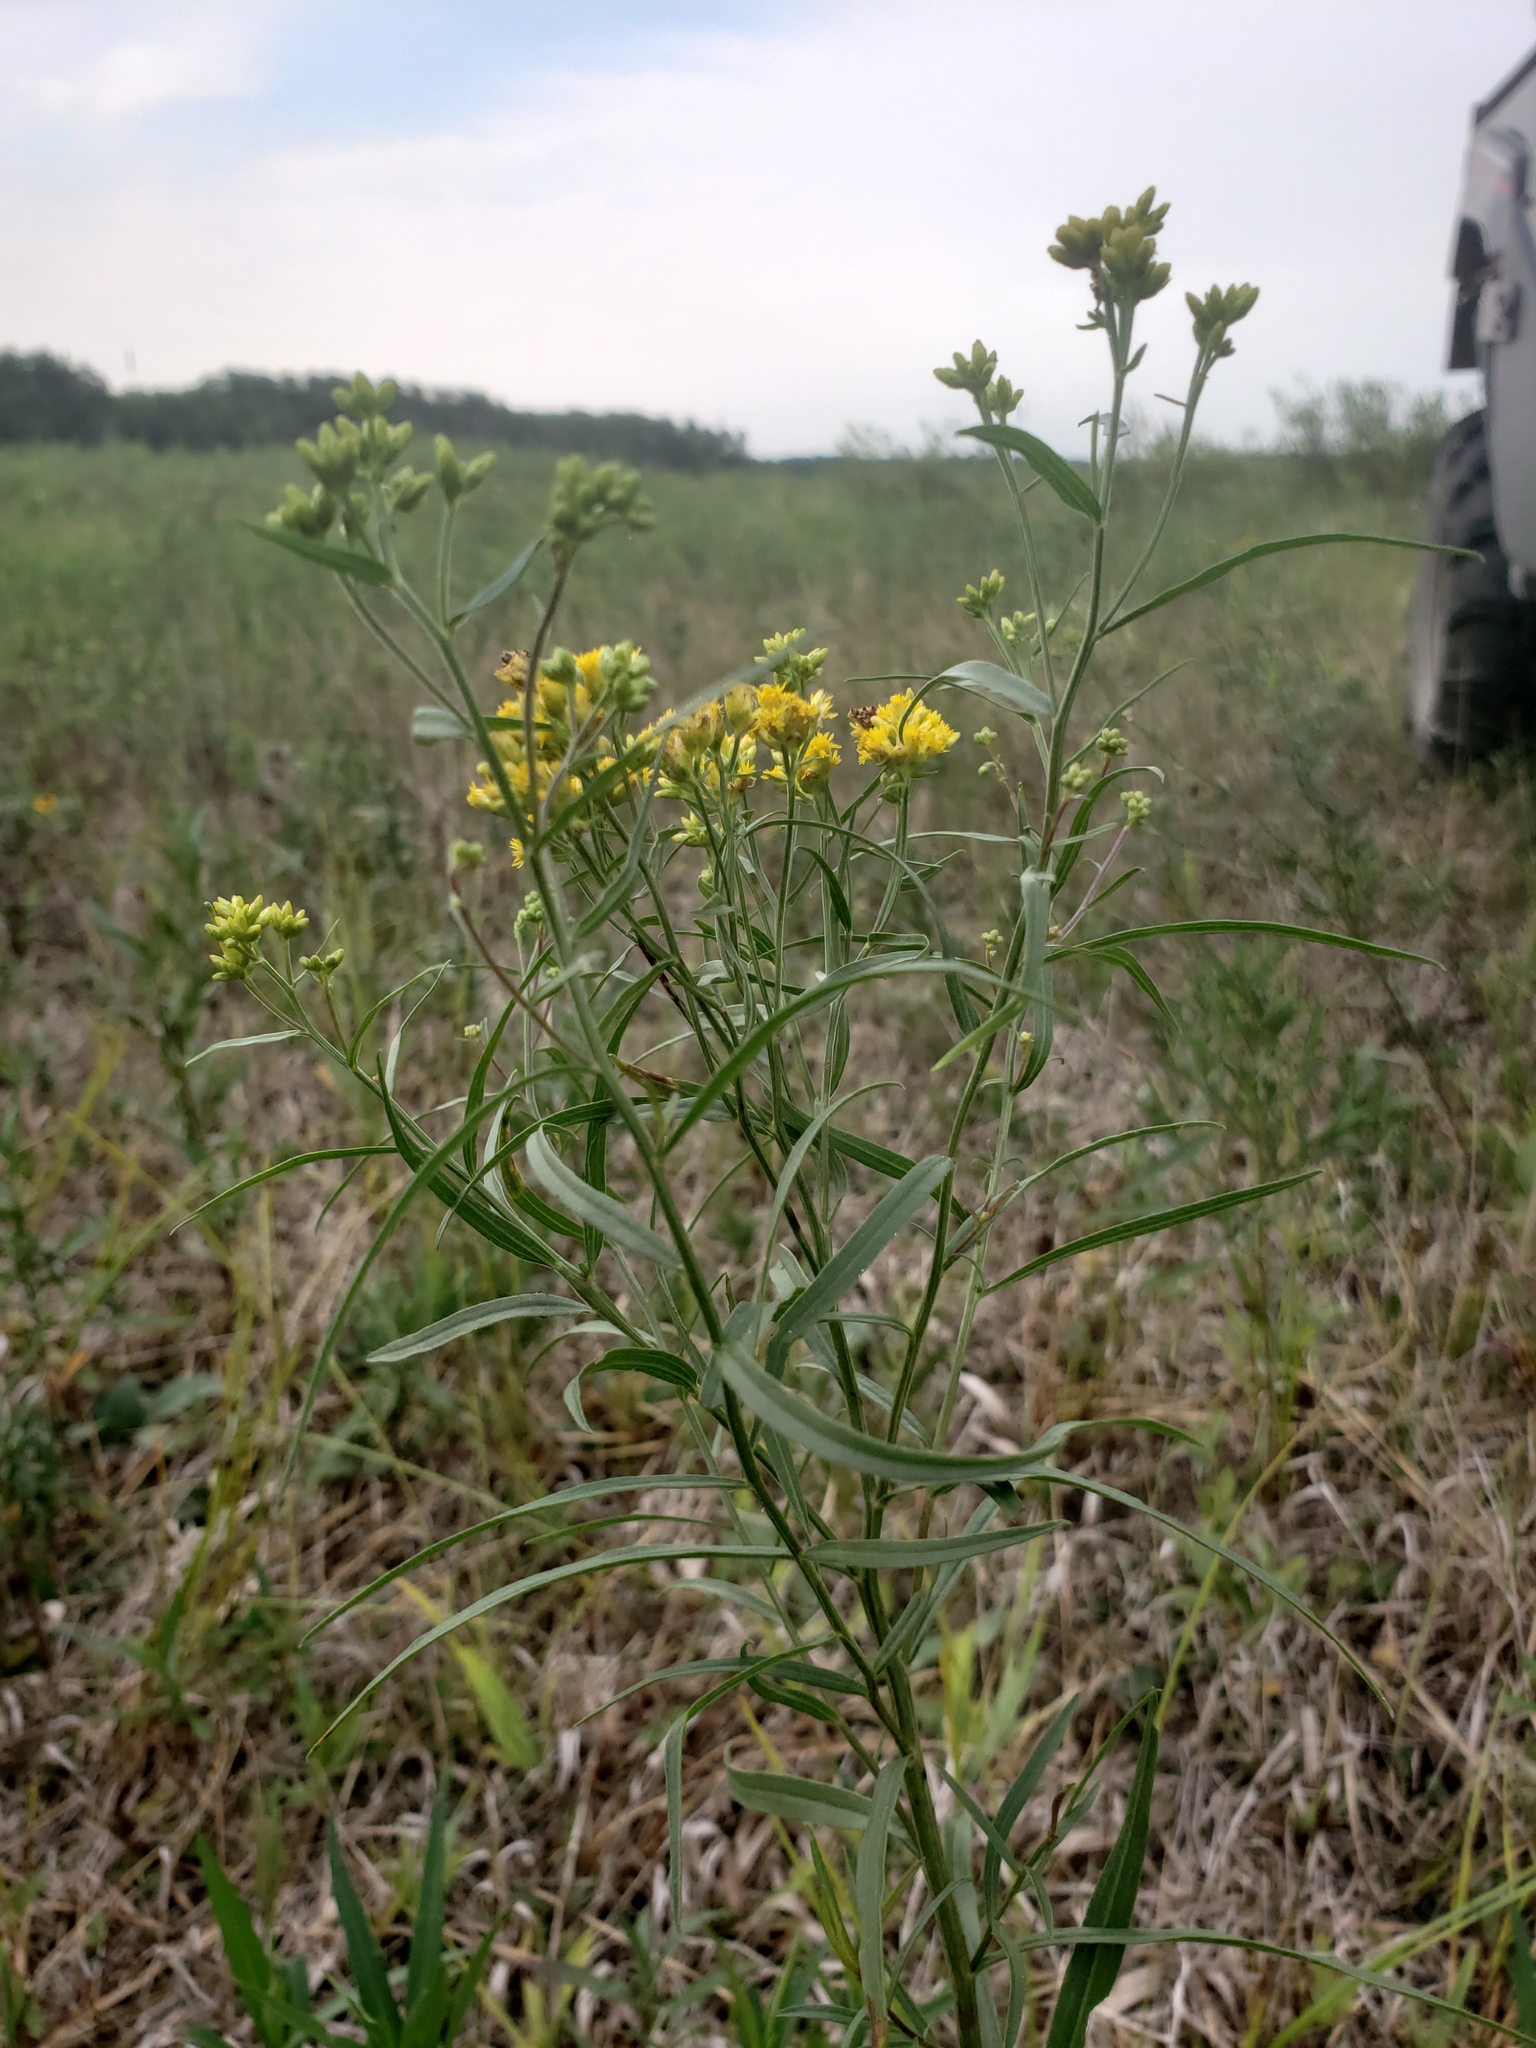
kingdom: Plantae
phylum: Tracheophyta
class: Magnoliopsida
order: Asterales
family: Asteraceae
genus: Euthamia
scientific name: Euthamia graminifolia
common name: Common goldentop
